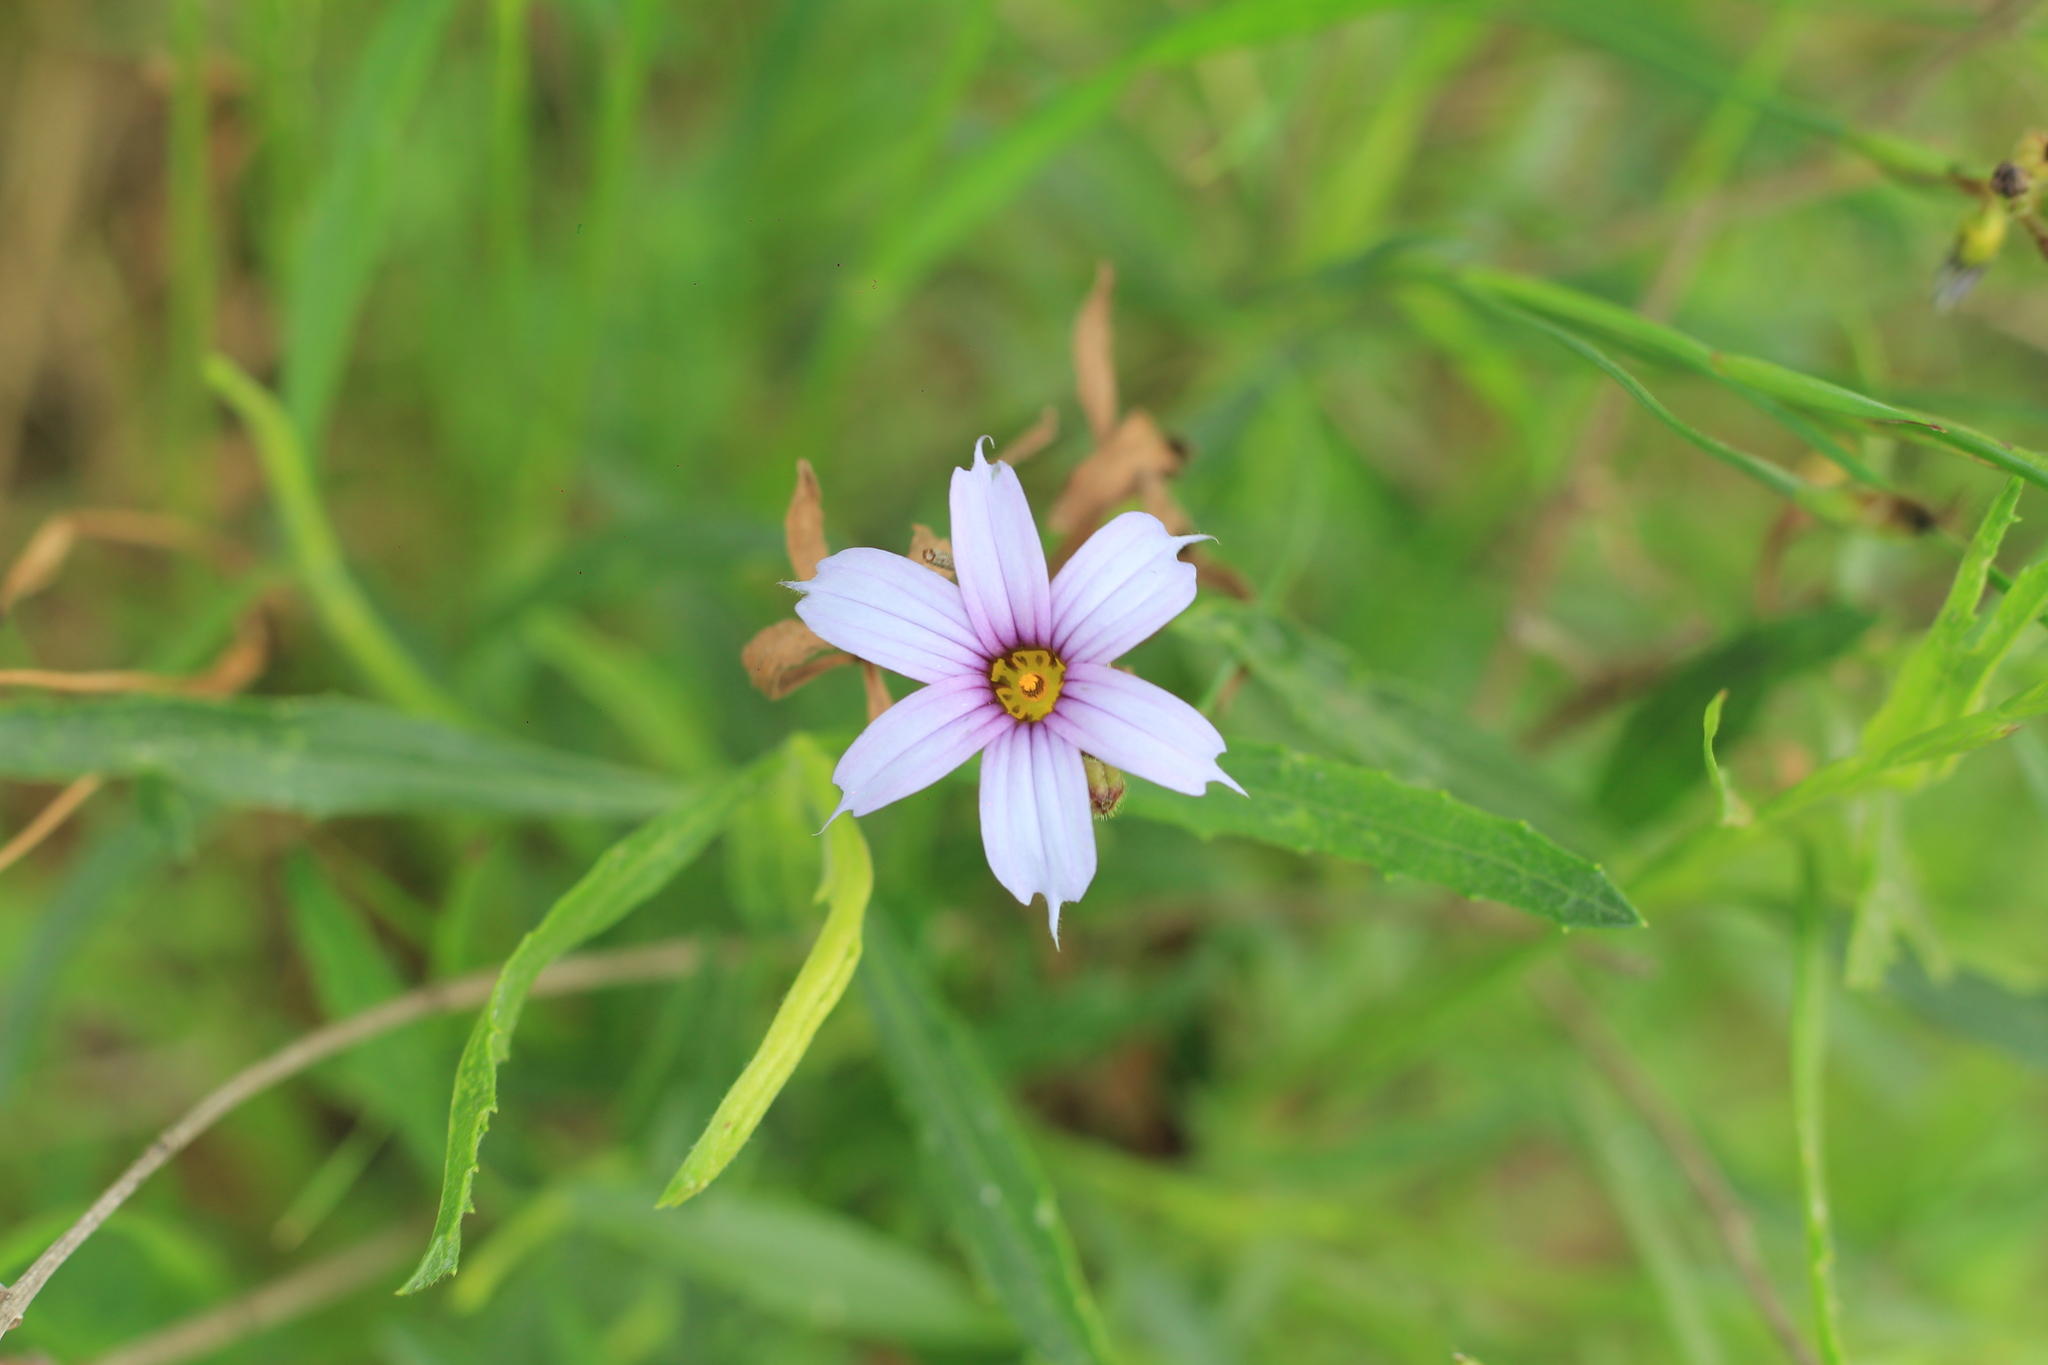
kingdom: Plantae
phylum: Tracheophyta
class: Liliopsida
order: Asparagales
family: Iridaceae
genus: Sisyrinchium
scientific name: Sisyrinchium platense
